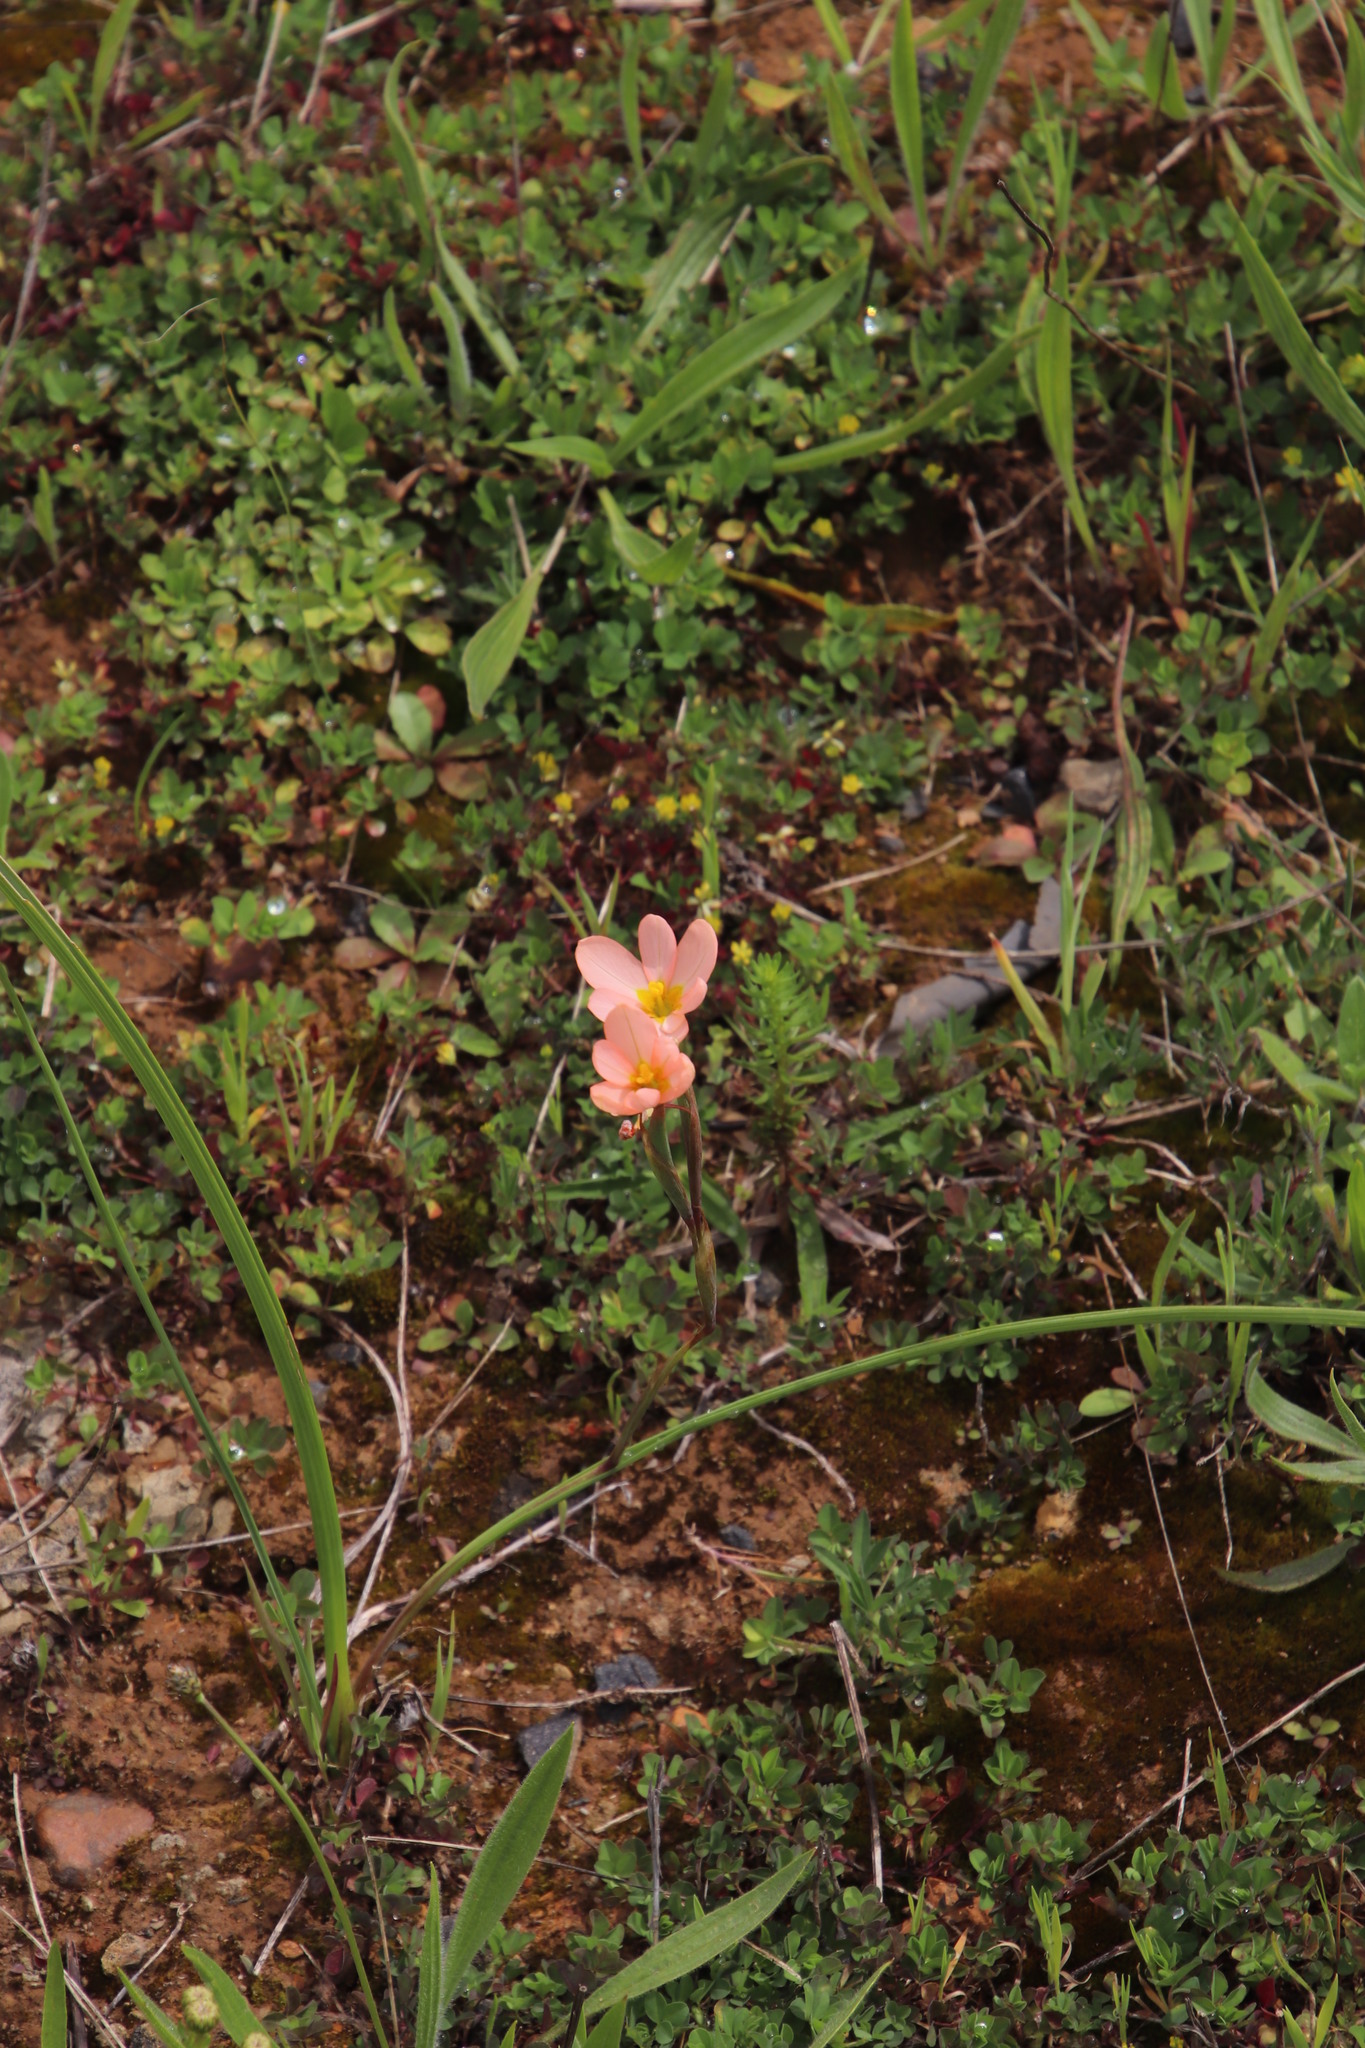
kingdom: Plantae
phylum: Tracheophyta
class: Liliopsida
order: Asparagales
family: Iridaceae
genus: Moraea
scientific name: Moraea miniata
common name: Two-leaf cape-tulip
